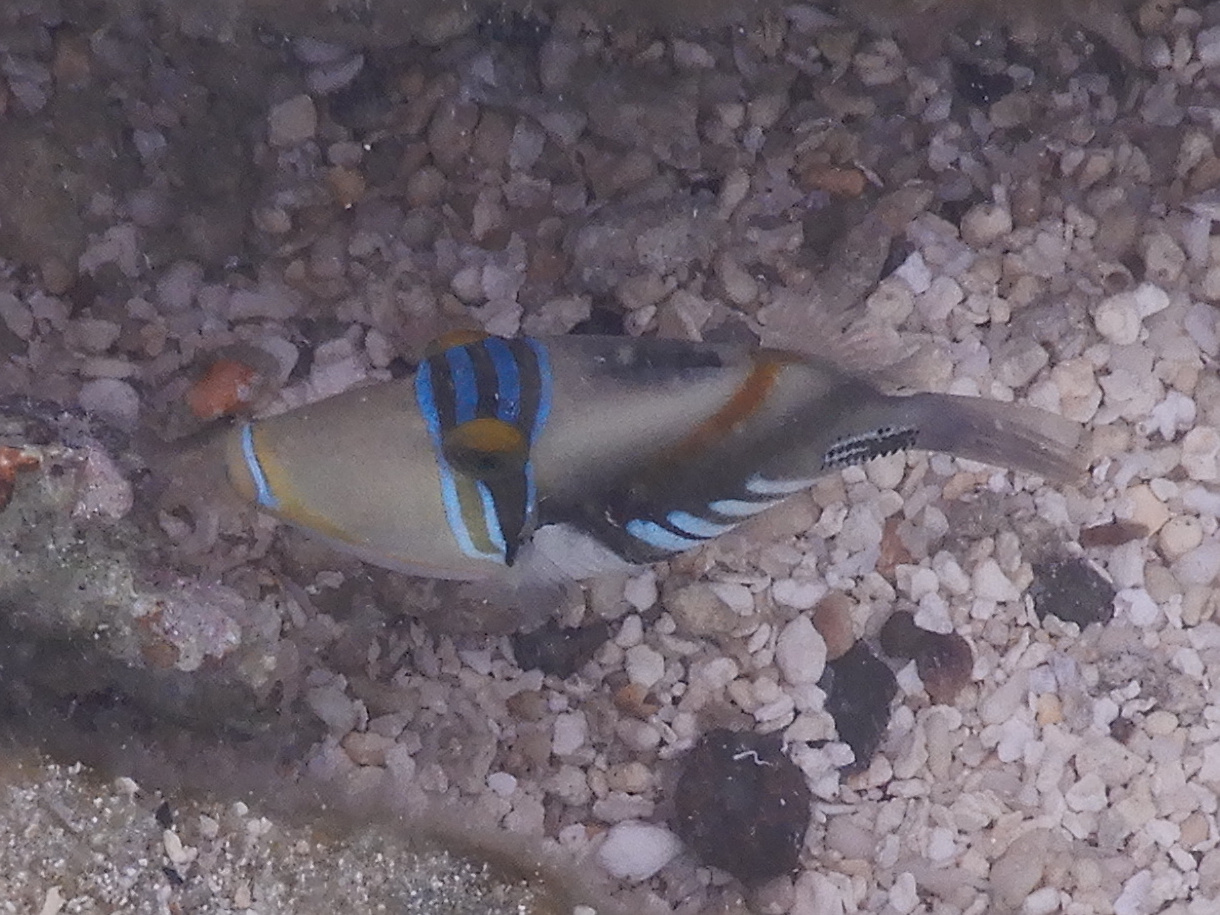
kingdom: Animalia
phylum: Chordata
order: Tetraodontiformes
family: Balistidae
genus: Rhinecanthus
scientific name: Rhinecanthus aculeatus
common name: White-banded triggerfish
